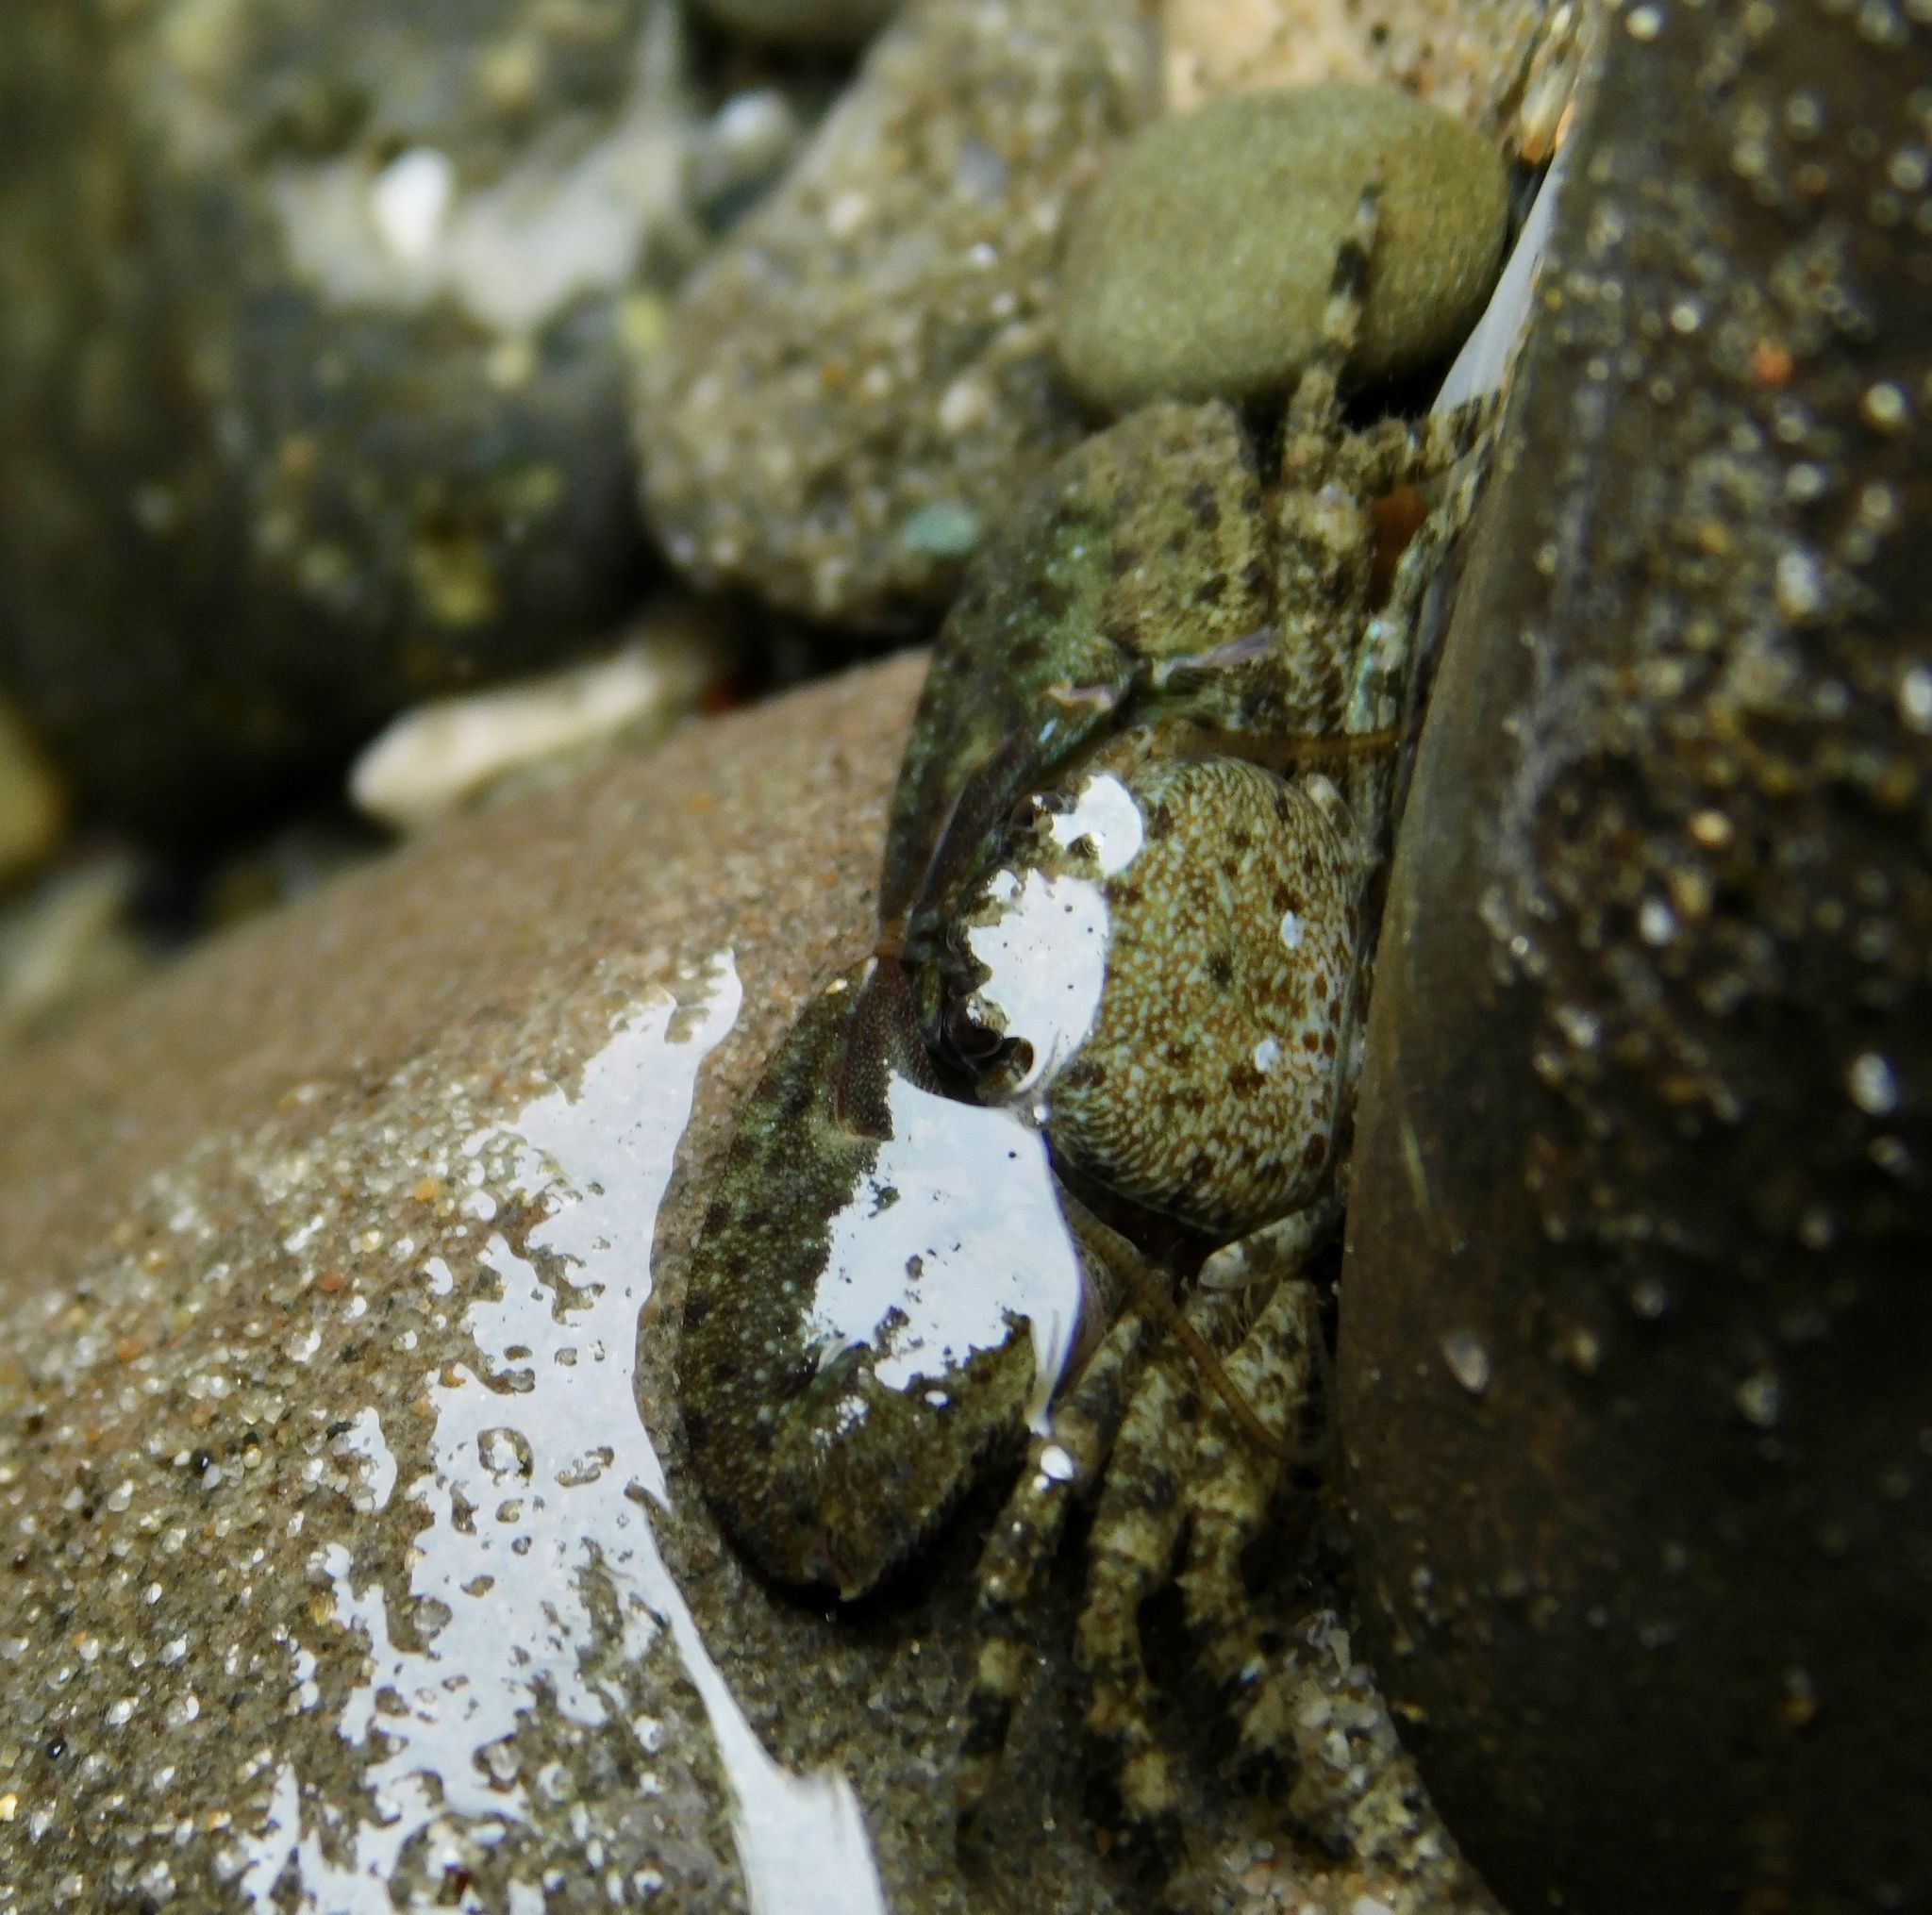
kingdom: Animalia
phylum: Arthropoda
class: Malacostraca
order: Decapoda
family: Porcellanidae
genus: Petrolisthes
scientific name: Petrolisthes cabrilloi
